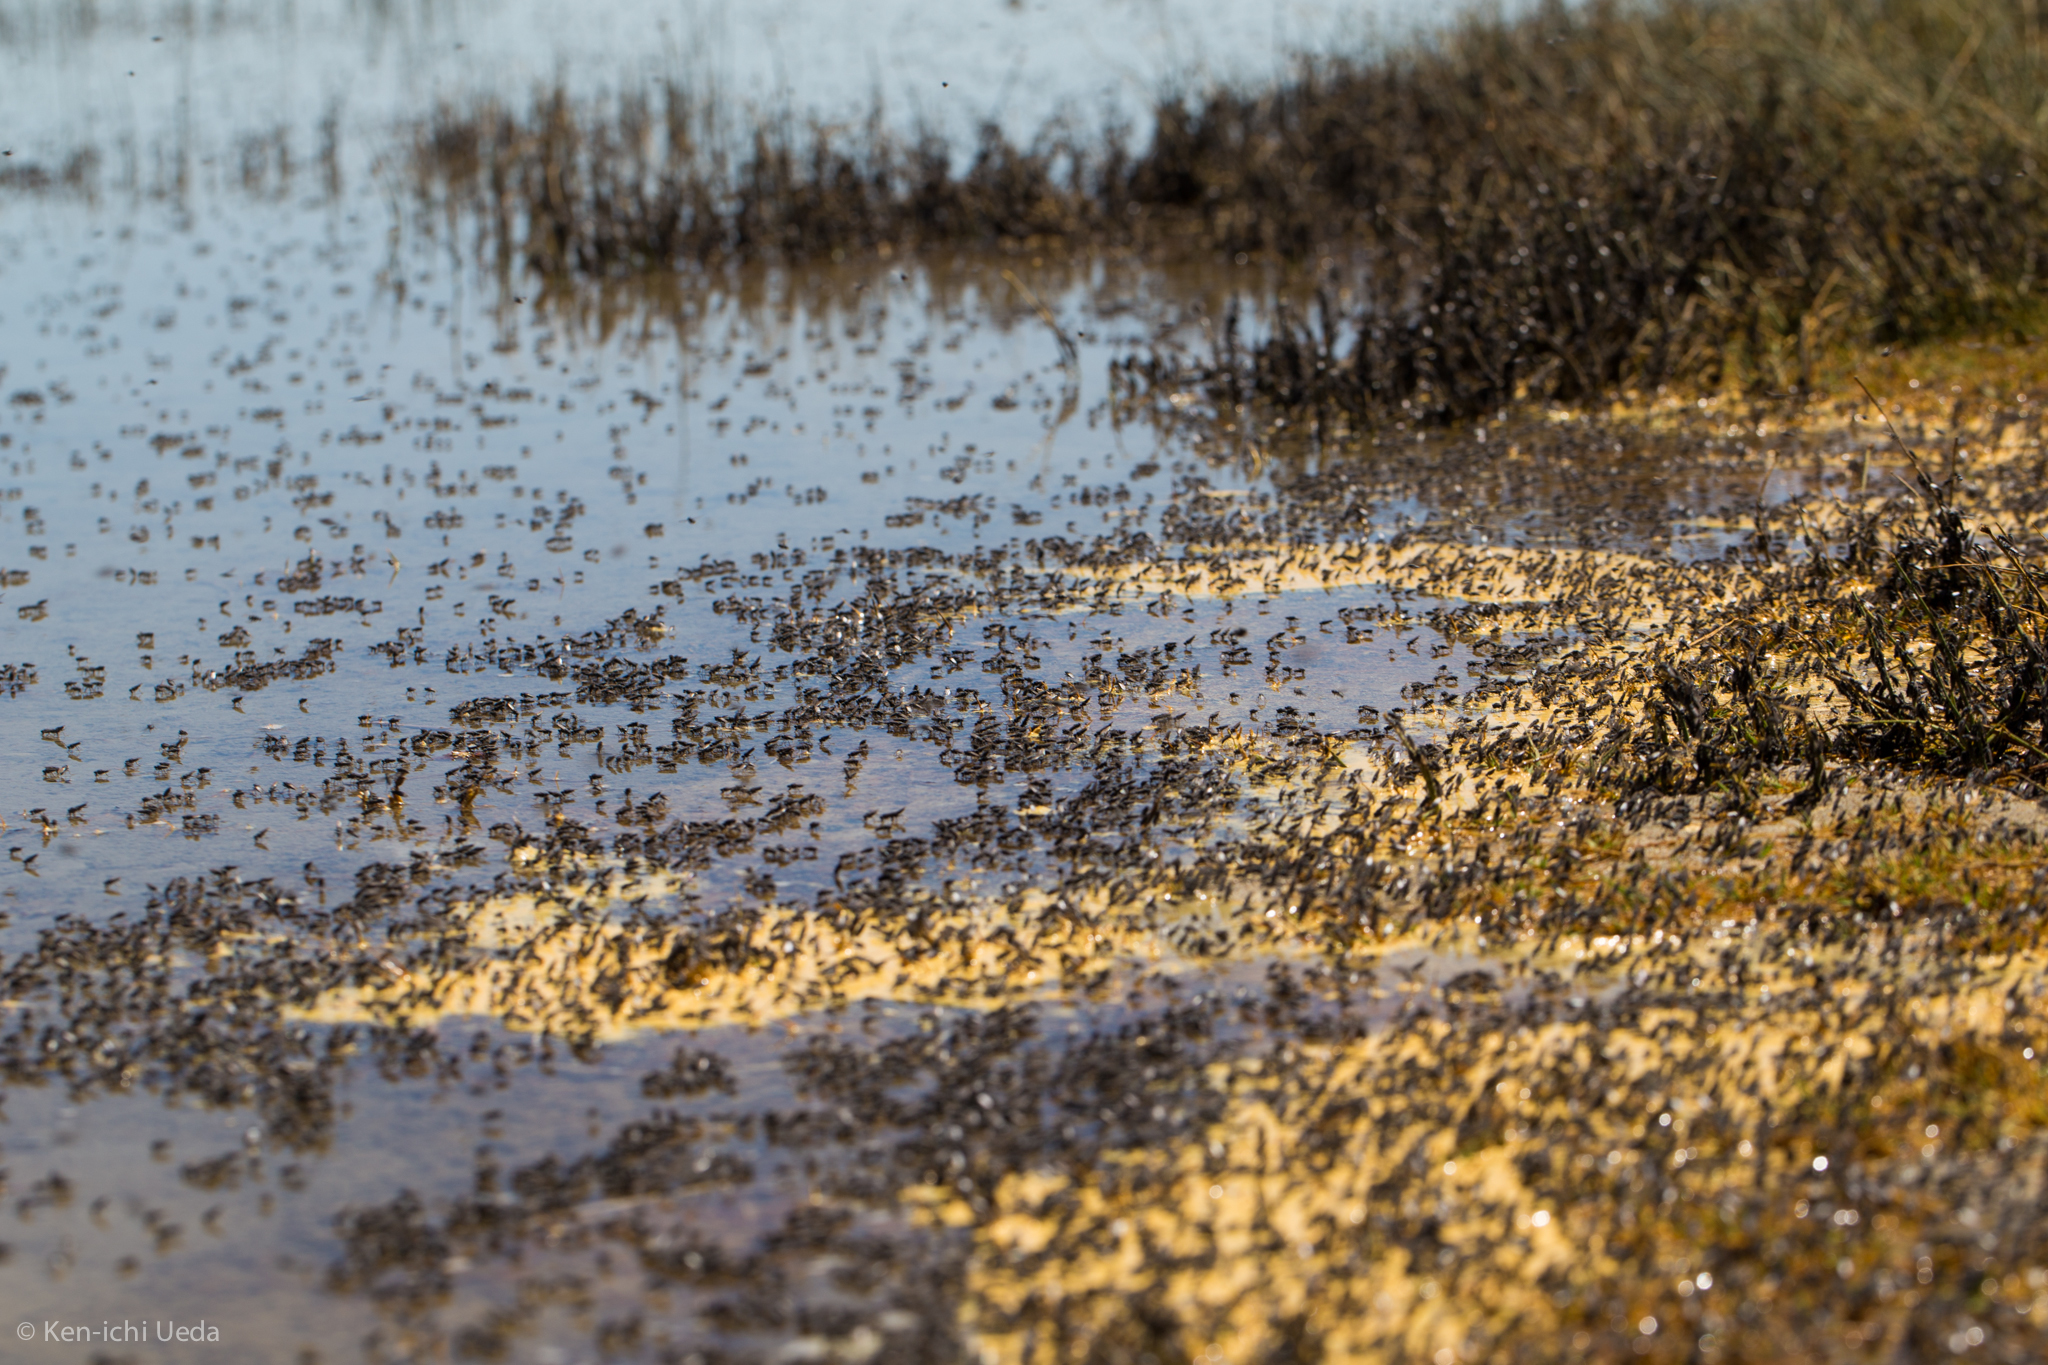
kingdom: Animalia
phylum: Arthropoda
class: Insecta
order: Diptera
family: Ephydridae
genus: Cirrula
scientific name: Cirrula hians
